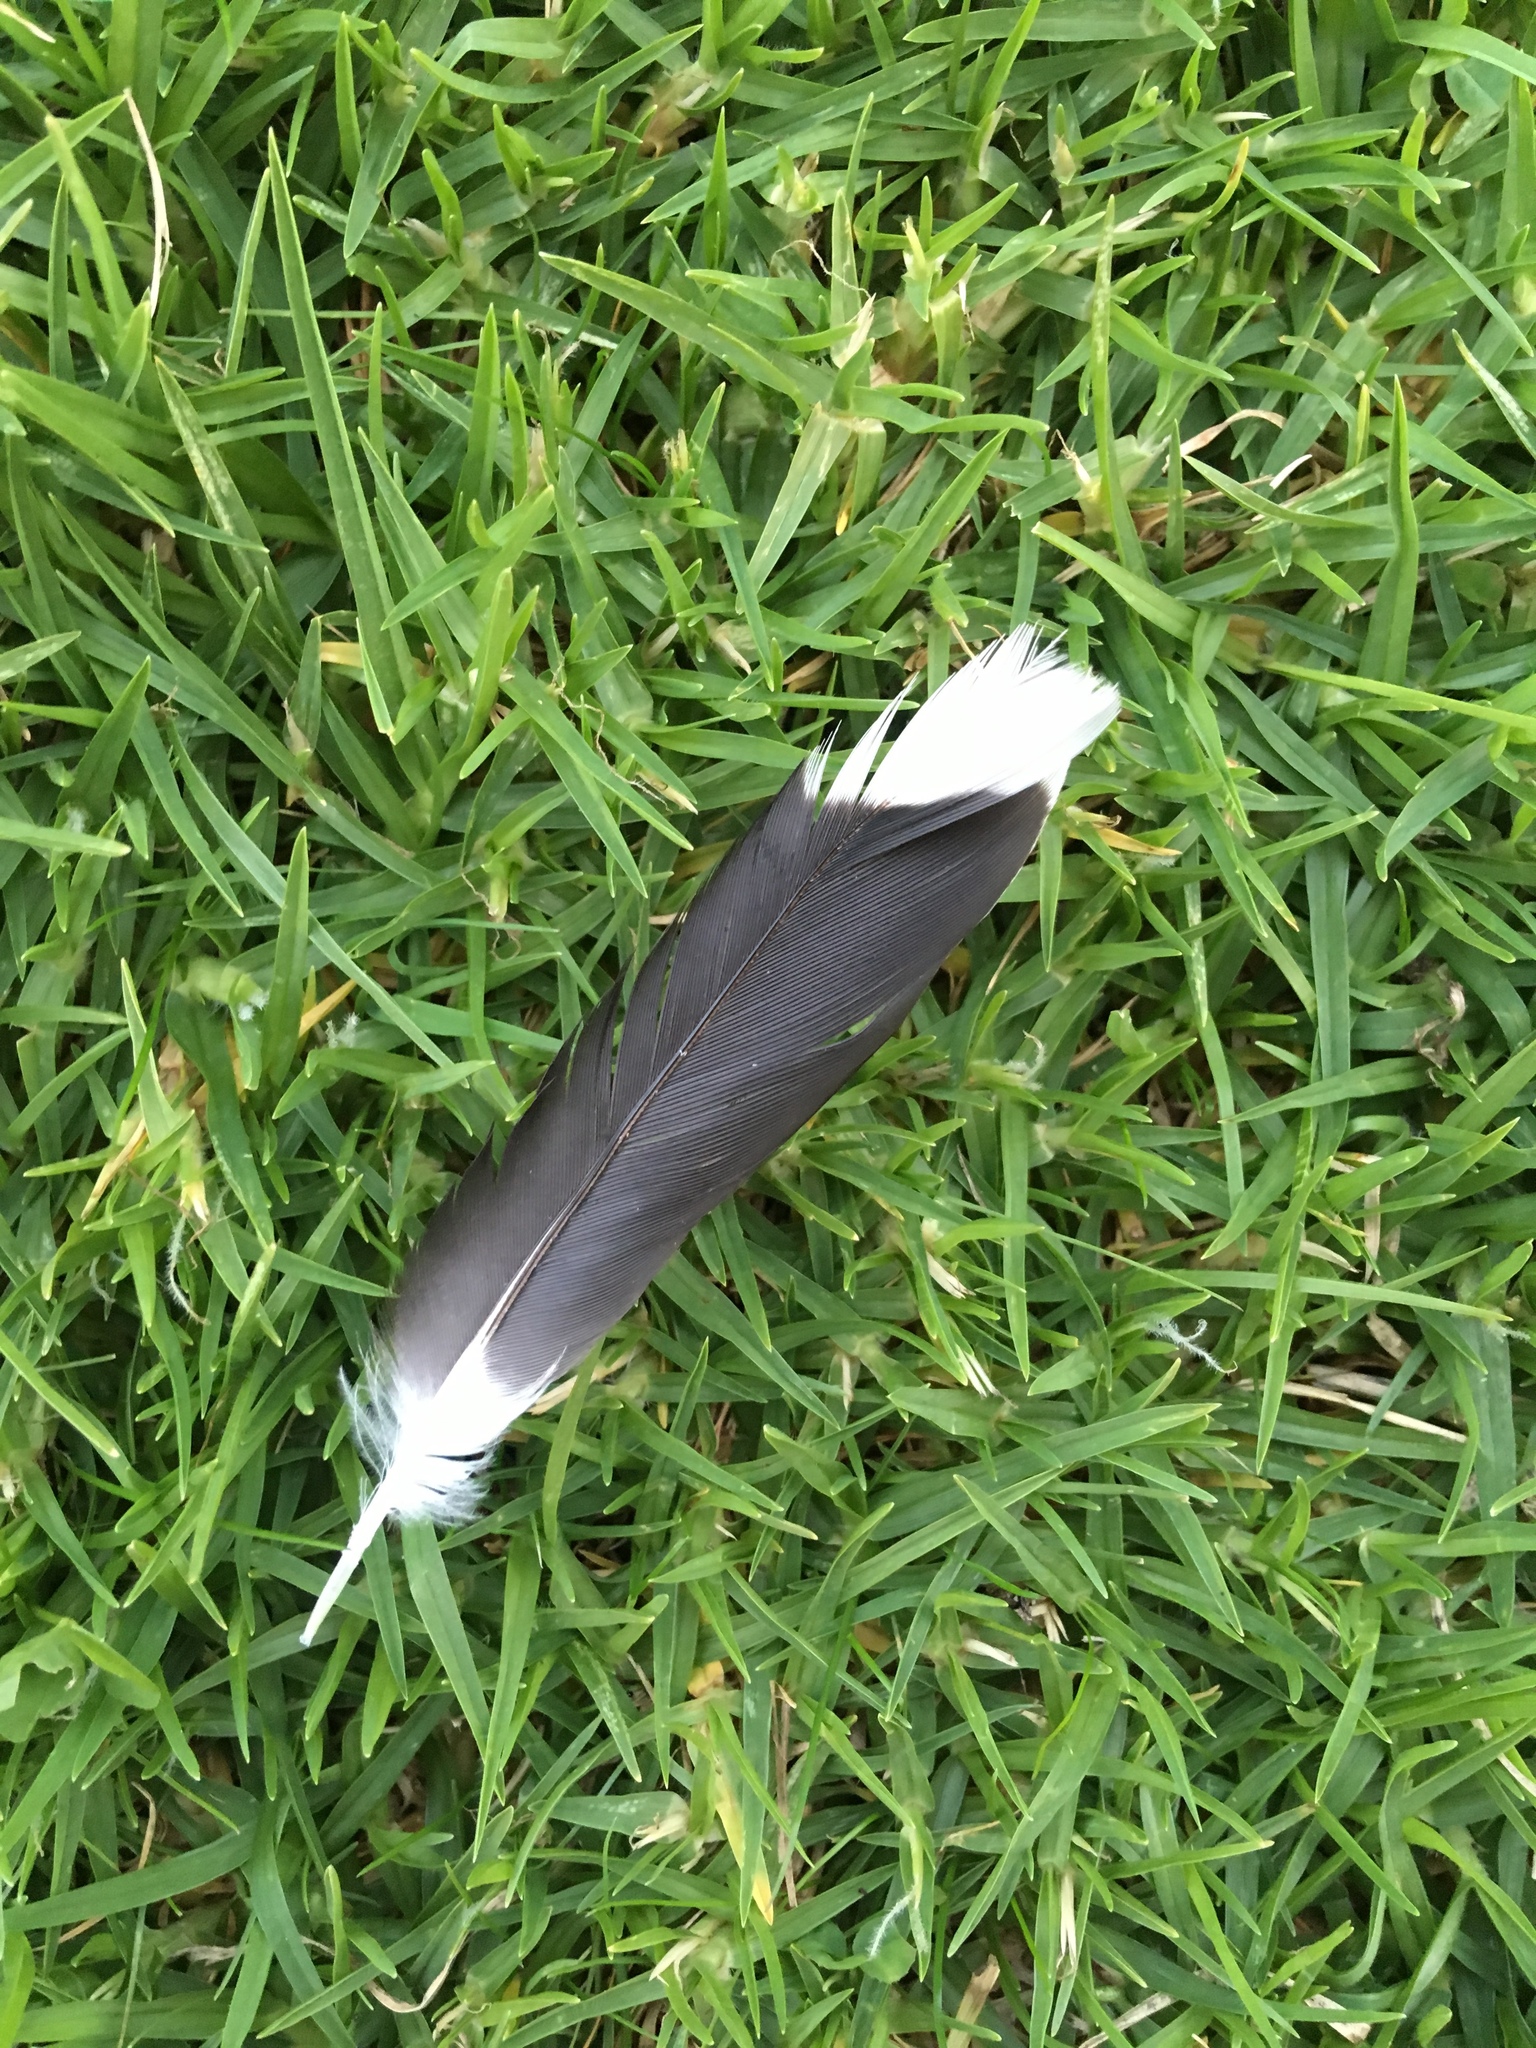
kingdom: Animalia
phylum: Chordata
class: Aves
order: Passeriformes
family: Sturnidae
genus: Acridotheres
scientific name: Acridotheres tristis
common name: Common myna
